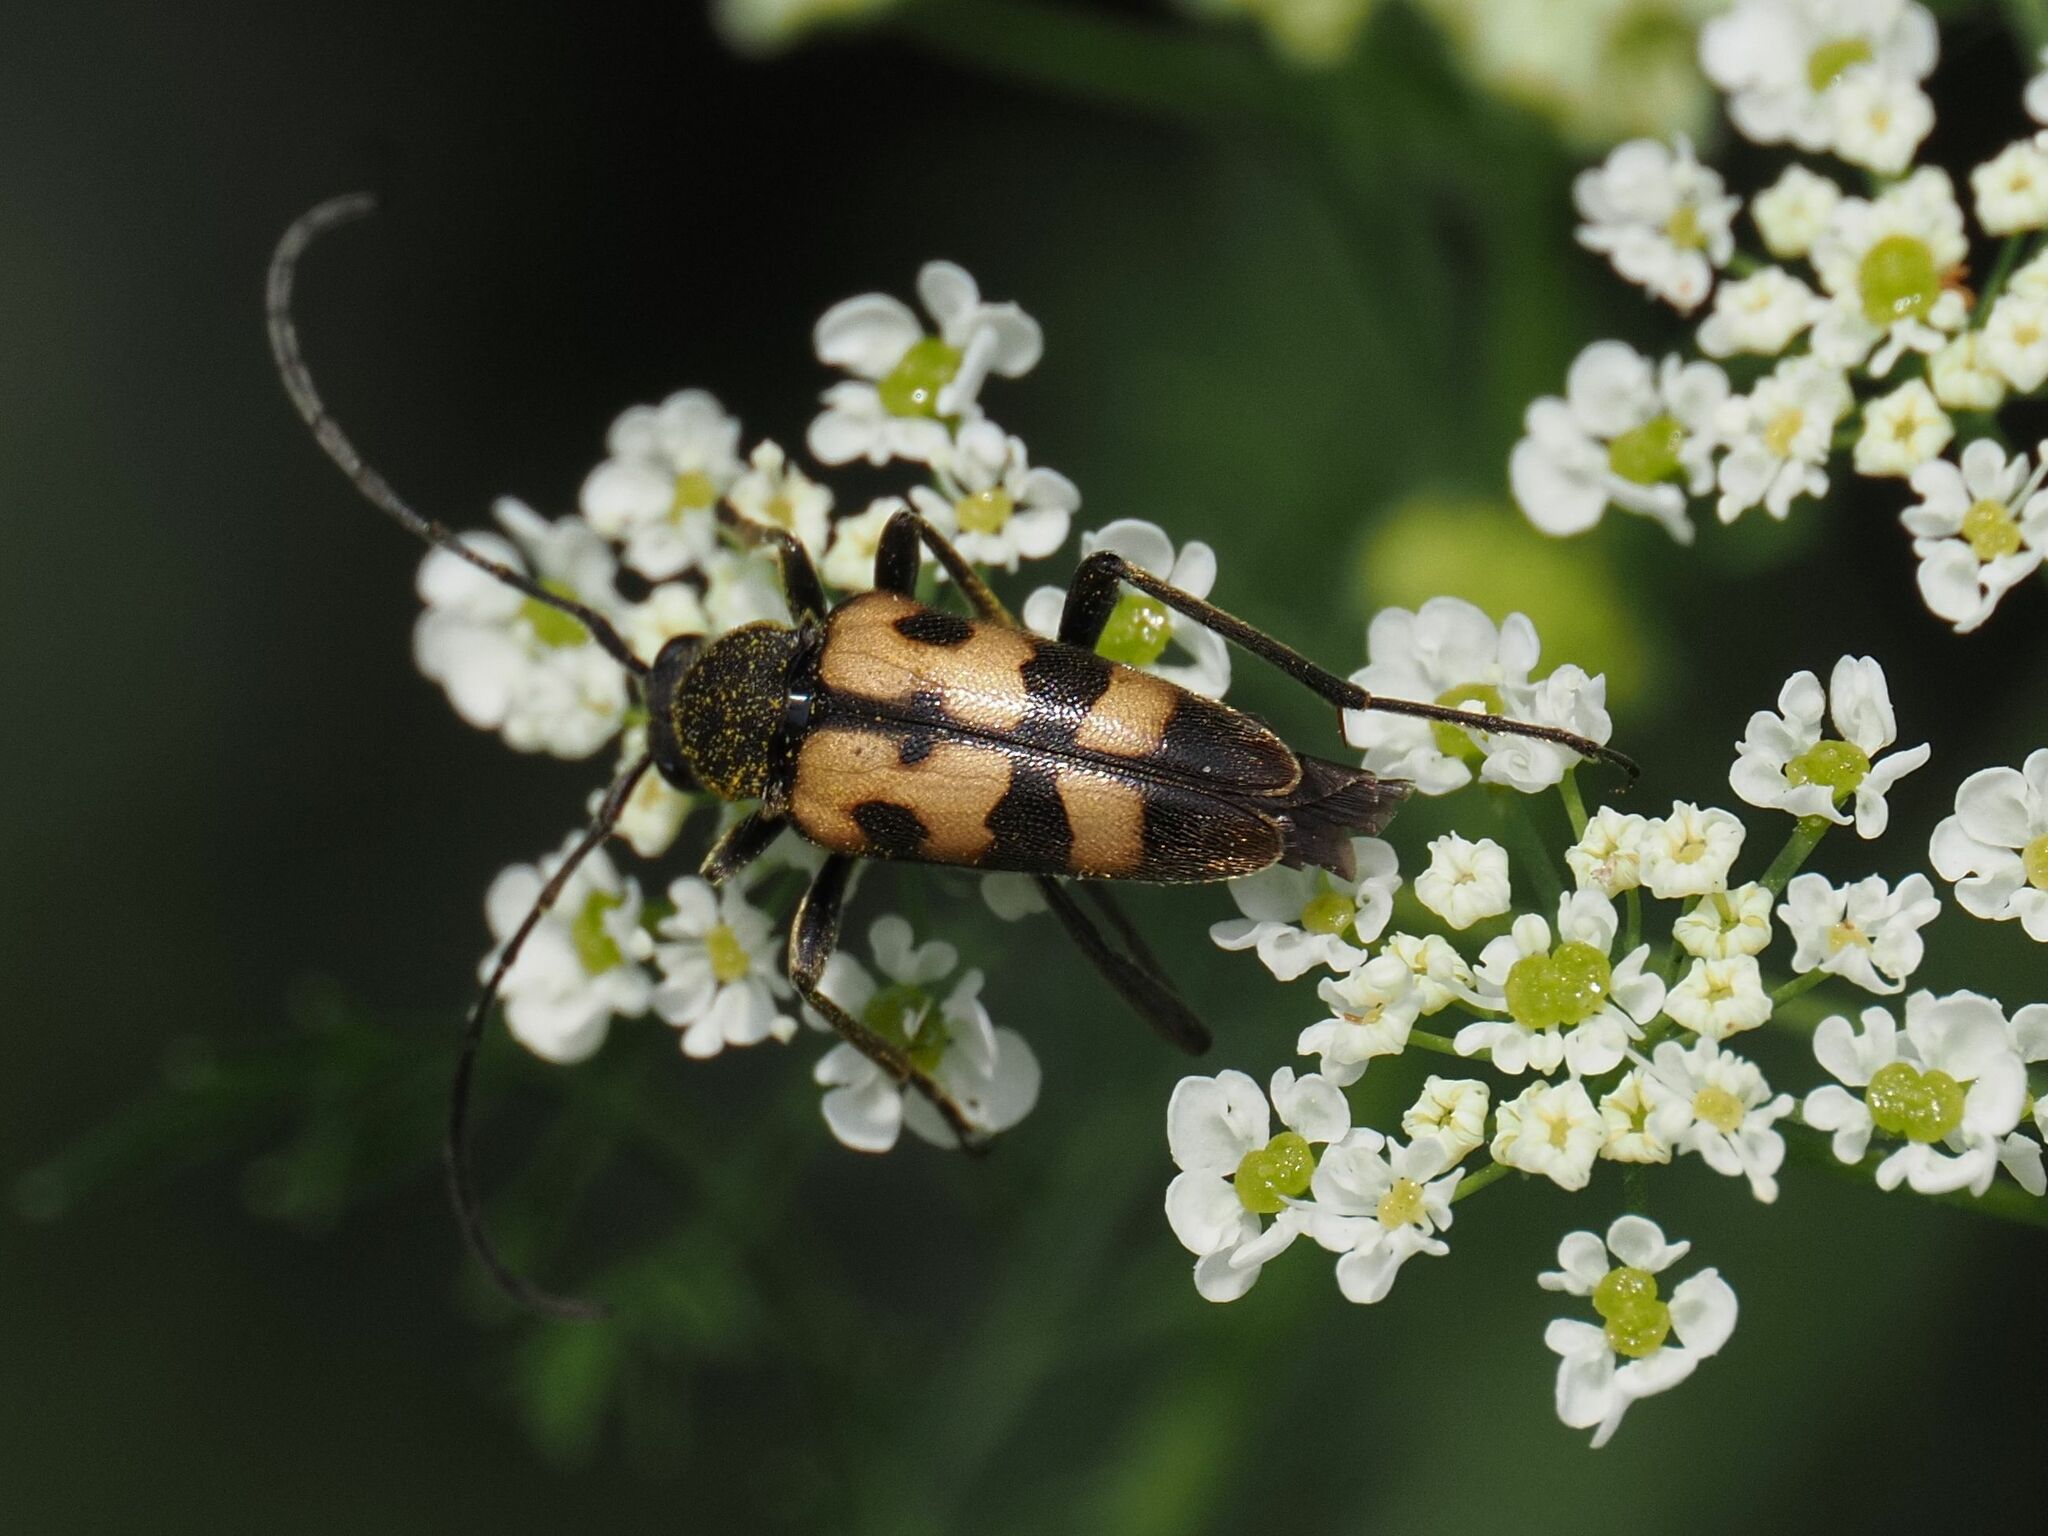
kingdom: Animalia
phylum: Arthropoda
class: Insecta
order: Coleoptera
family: Cerambycidae
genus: Pachytodes
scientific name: Pachytodes
